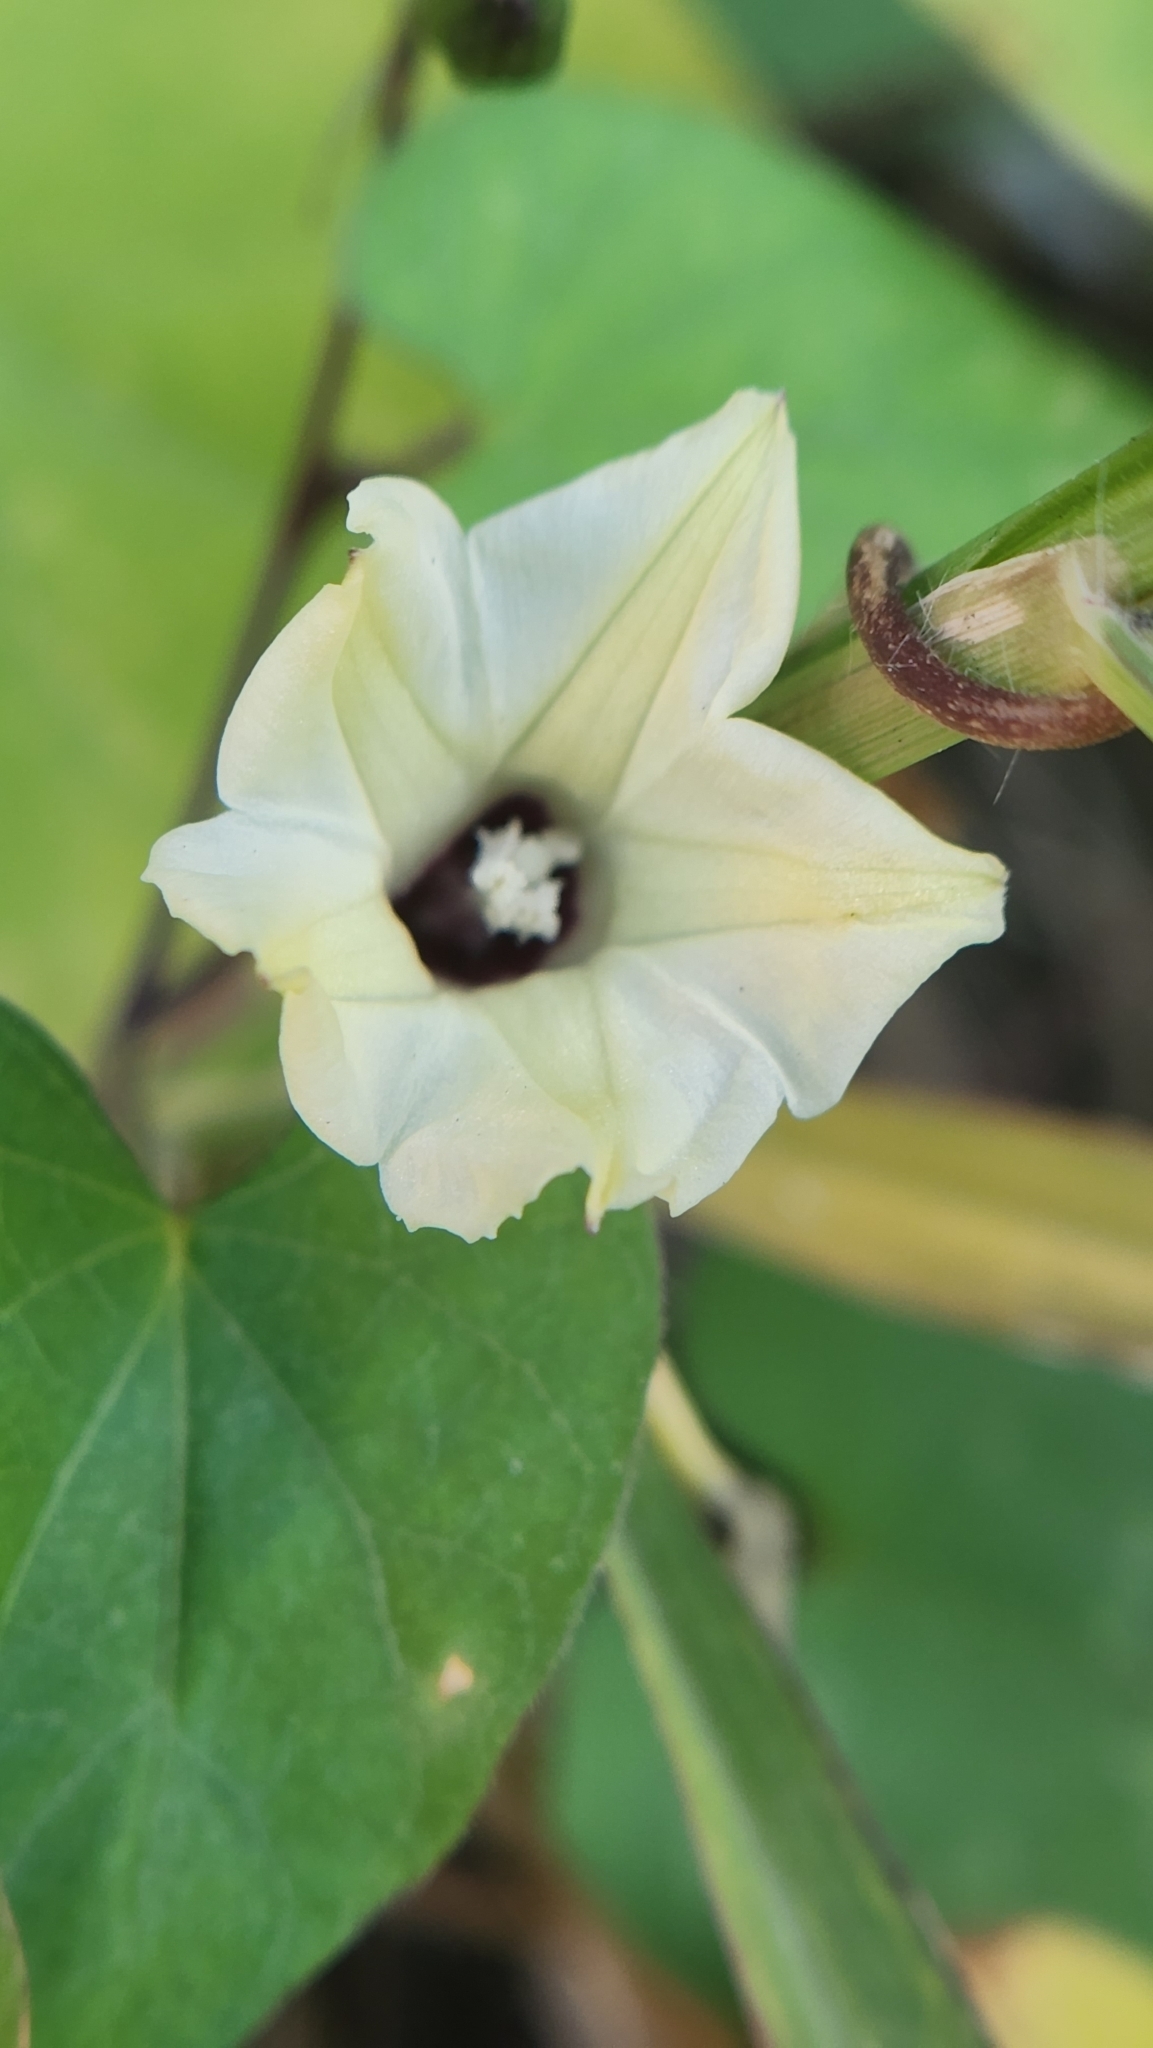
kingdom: Plantae
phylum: Tracheophyta
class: Magnoliopsida
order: Solanales
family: Convolvulaceae
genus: Ipomoea
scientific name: Ipomoea obscura
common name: Obscure morning-glory
